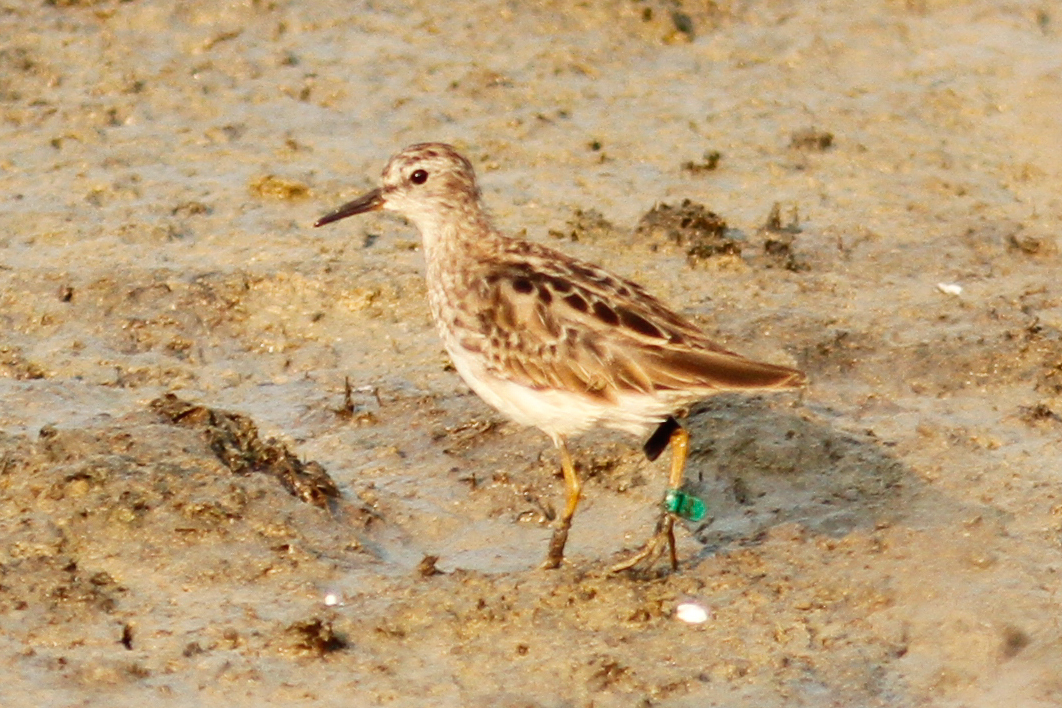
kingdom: Animalia
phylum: Chordata
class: Aves
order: Charadriiformes
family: Scolopacidae
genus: Calidris
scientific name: Calidris subminuta
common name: Long-toed stint
